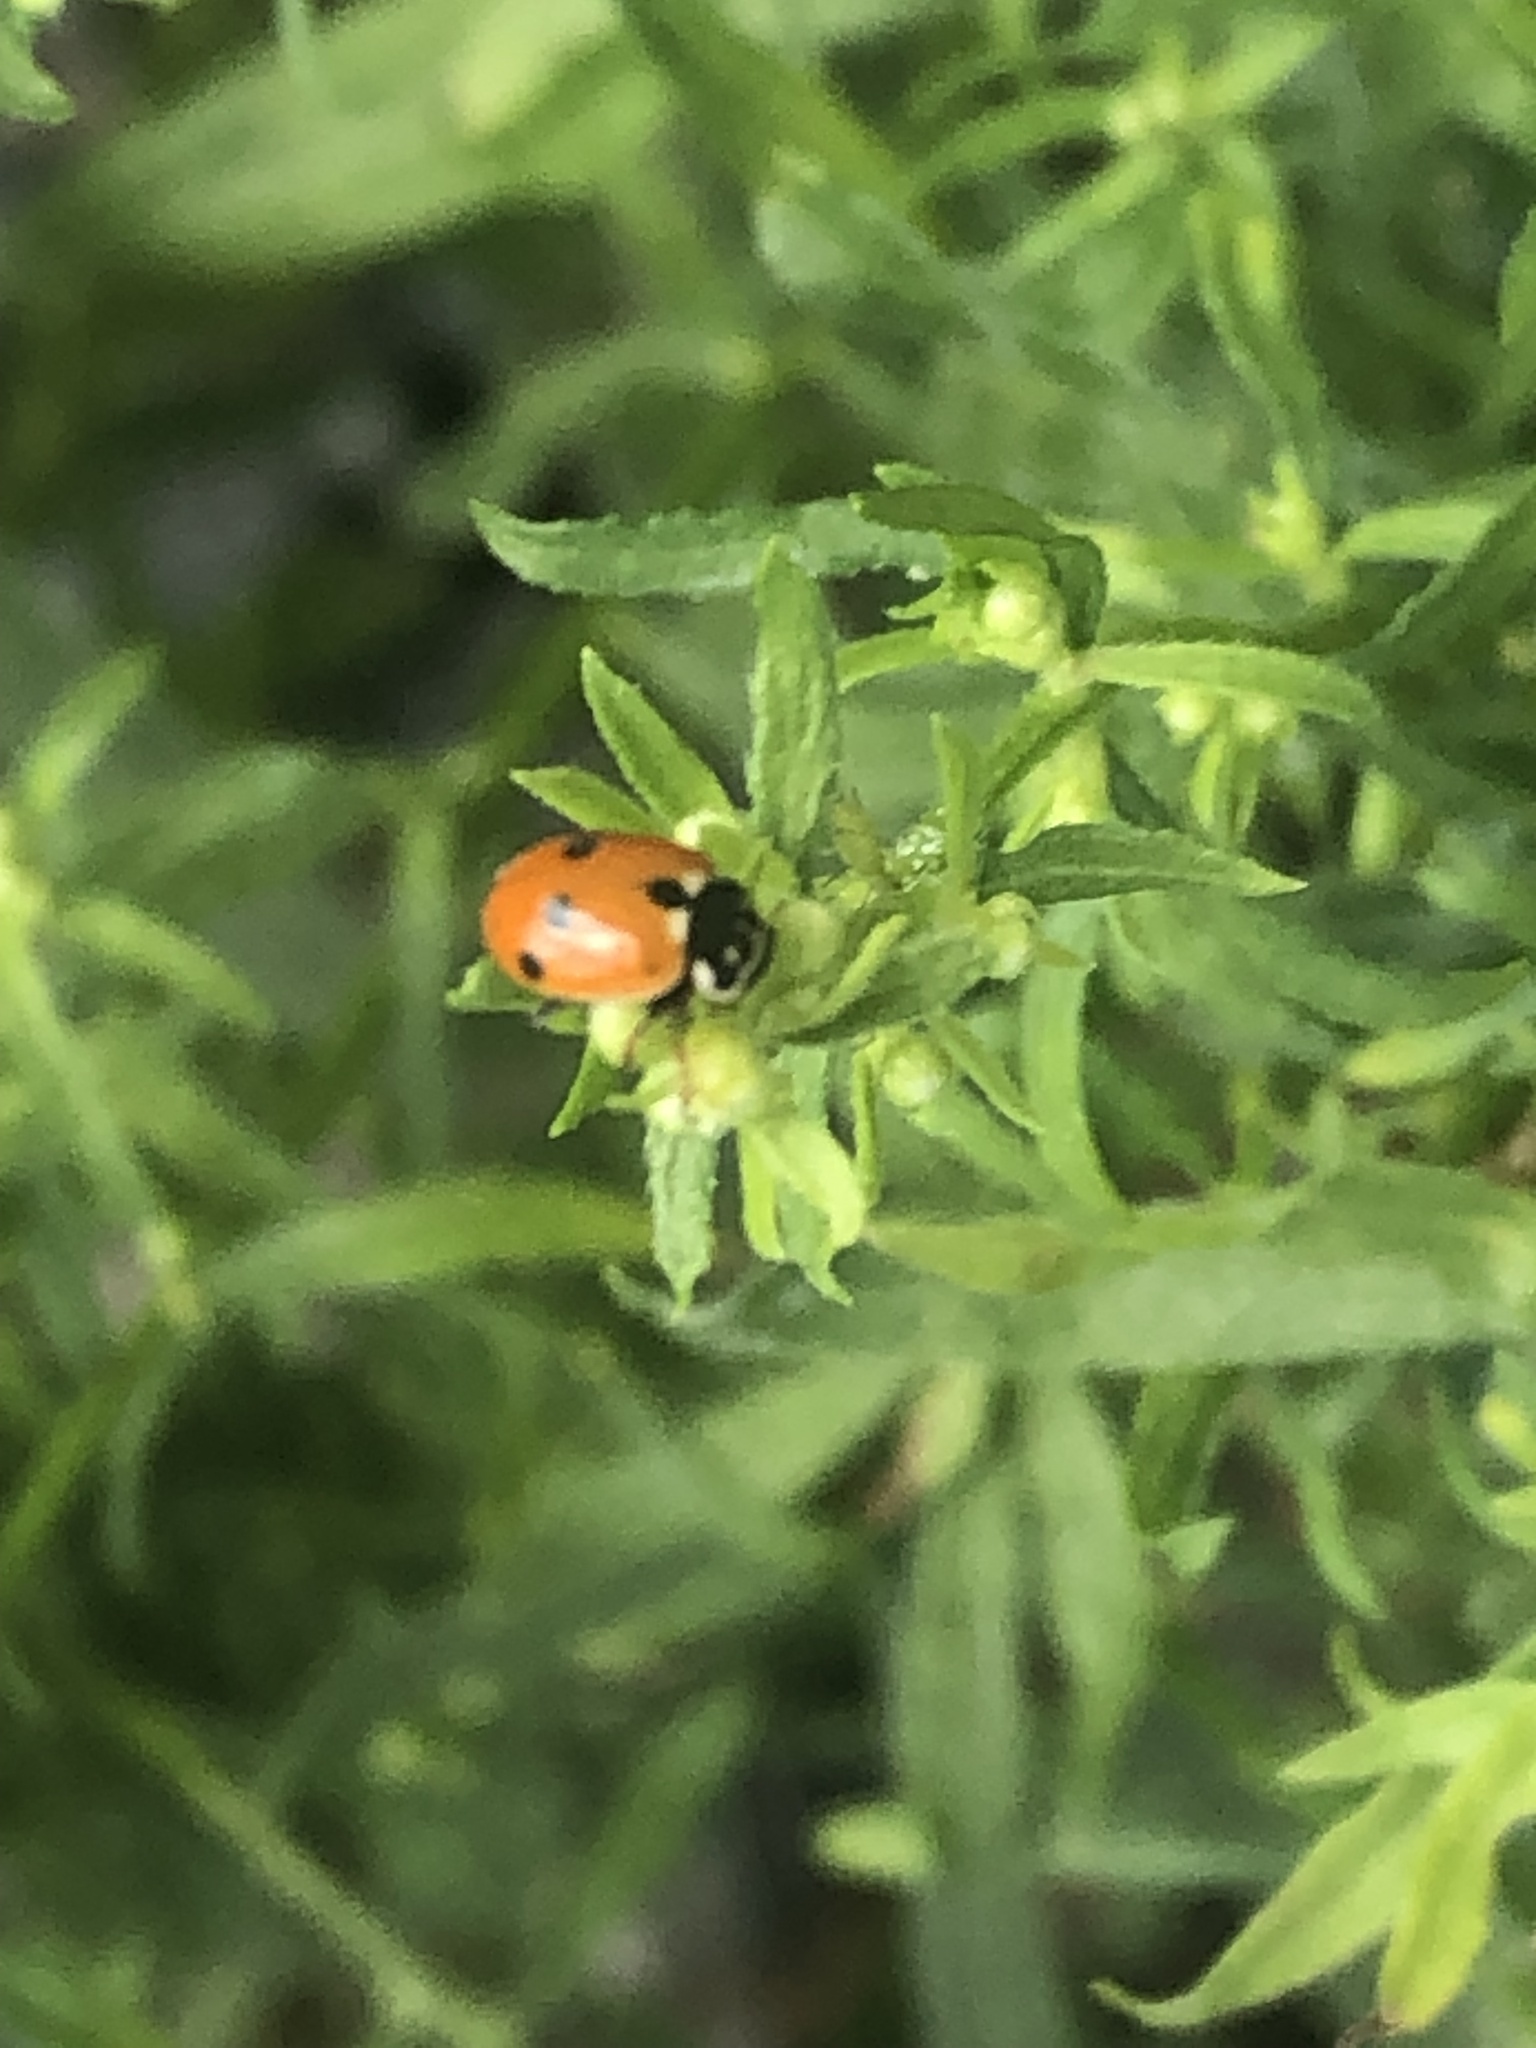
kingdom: Animalia
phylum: Arthropoda
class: Insecta
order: Coleoptera
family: Coccinellidae
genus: Hippodamia
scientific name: Hippodamia variegata
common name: Ladybird beetle
